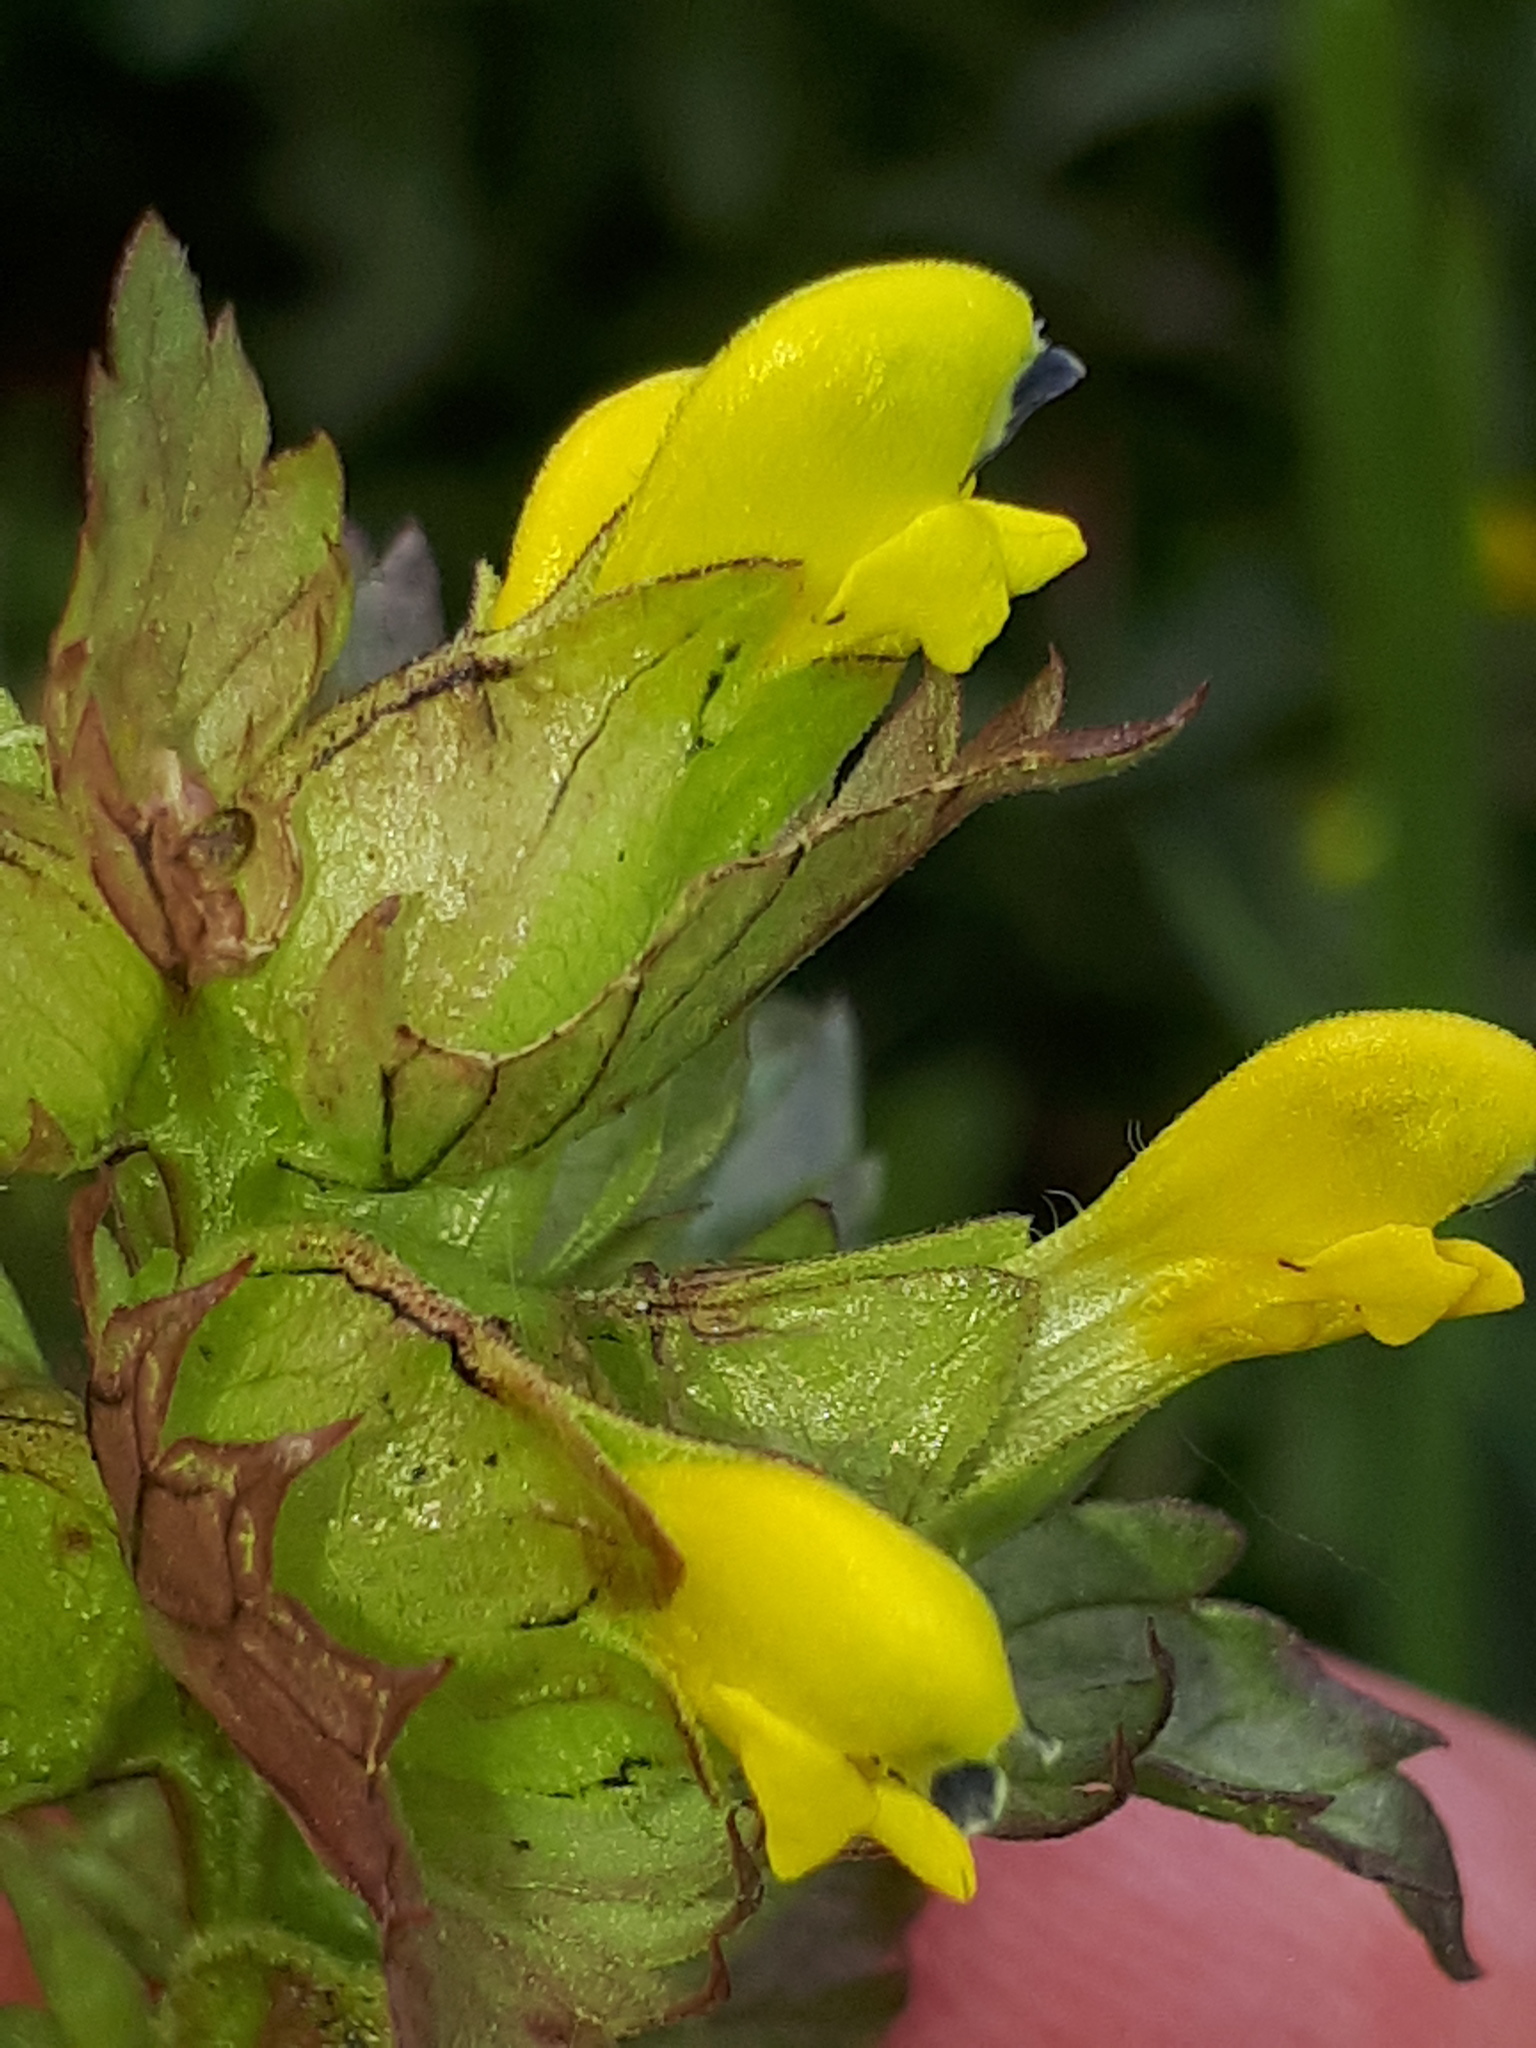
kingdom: Plantae
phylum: Tracheophyta
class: Magnoliopsida
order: Lamiales
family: Orobanchaceae
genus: Rhinanthus
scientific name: Rhinanthus minor
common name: Yellow-rattle
